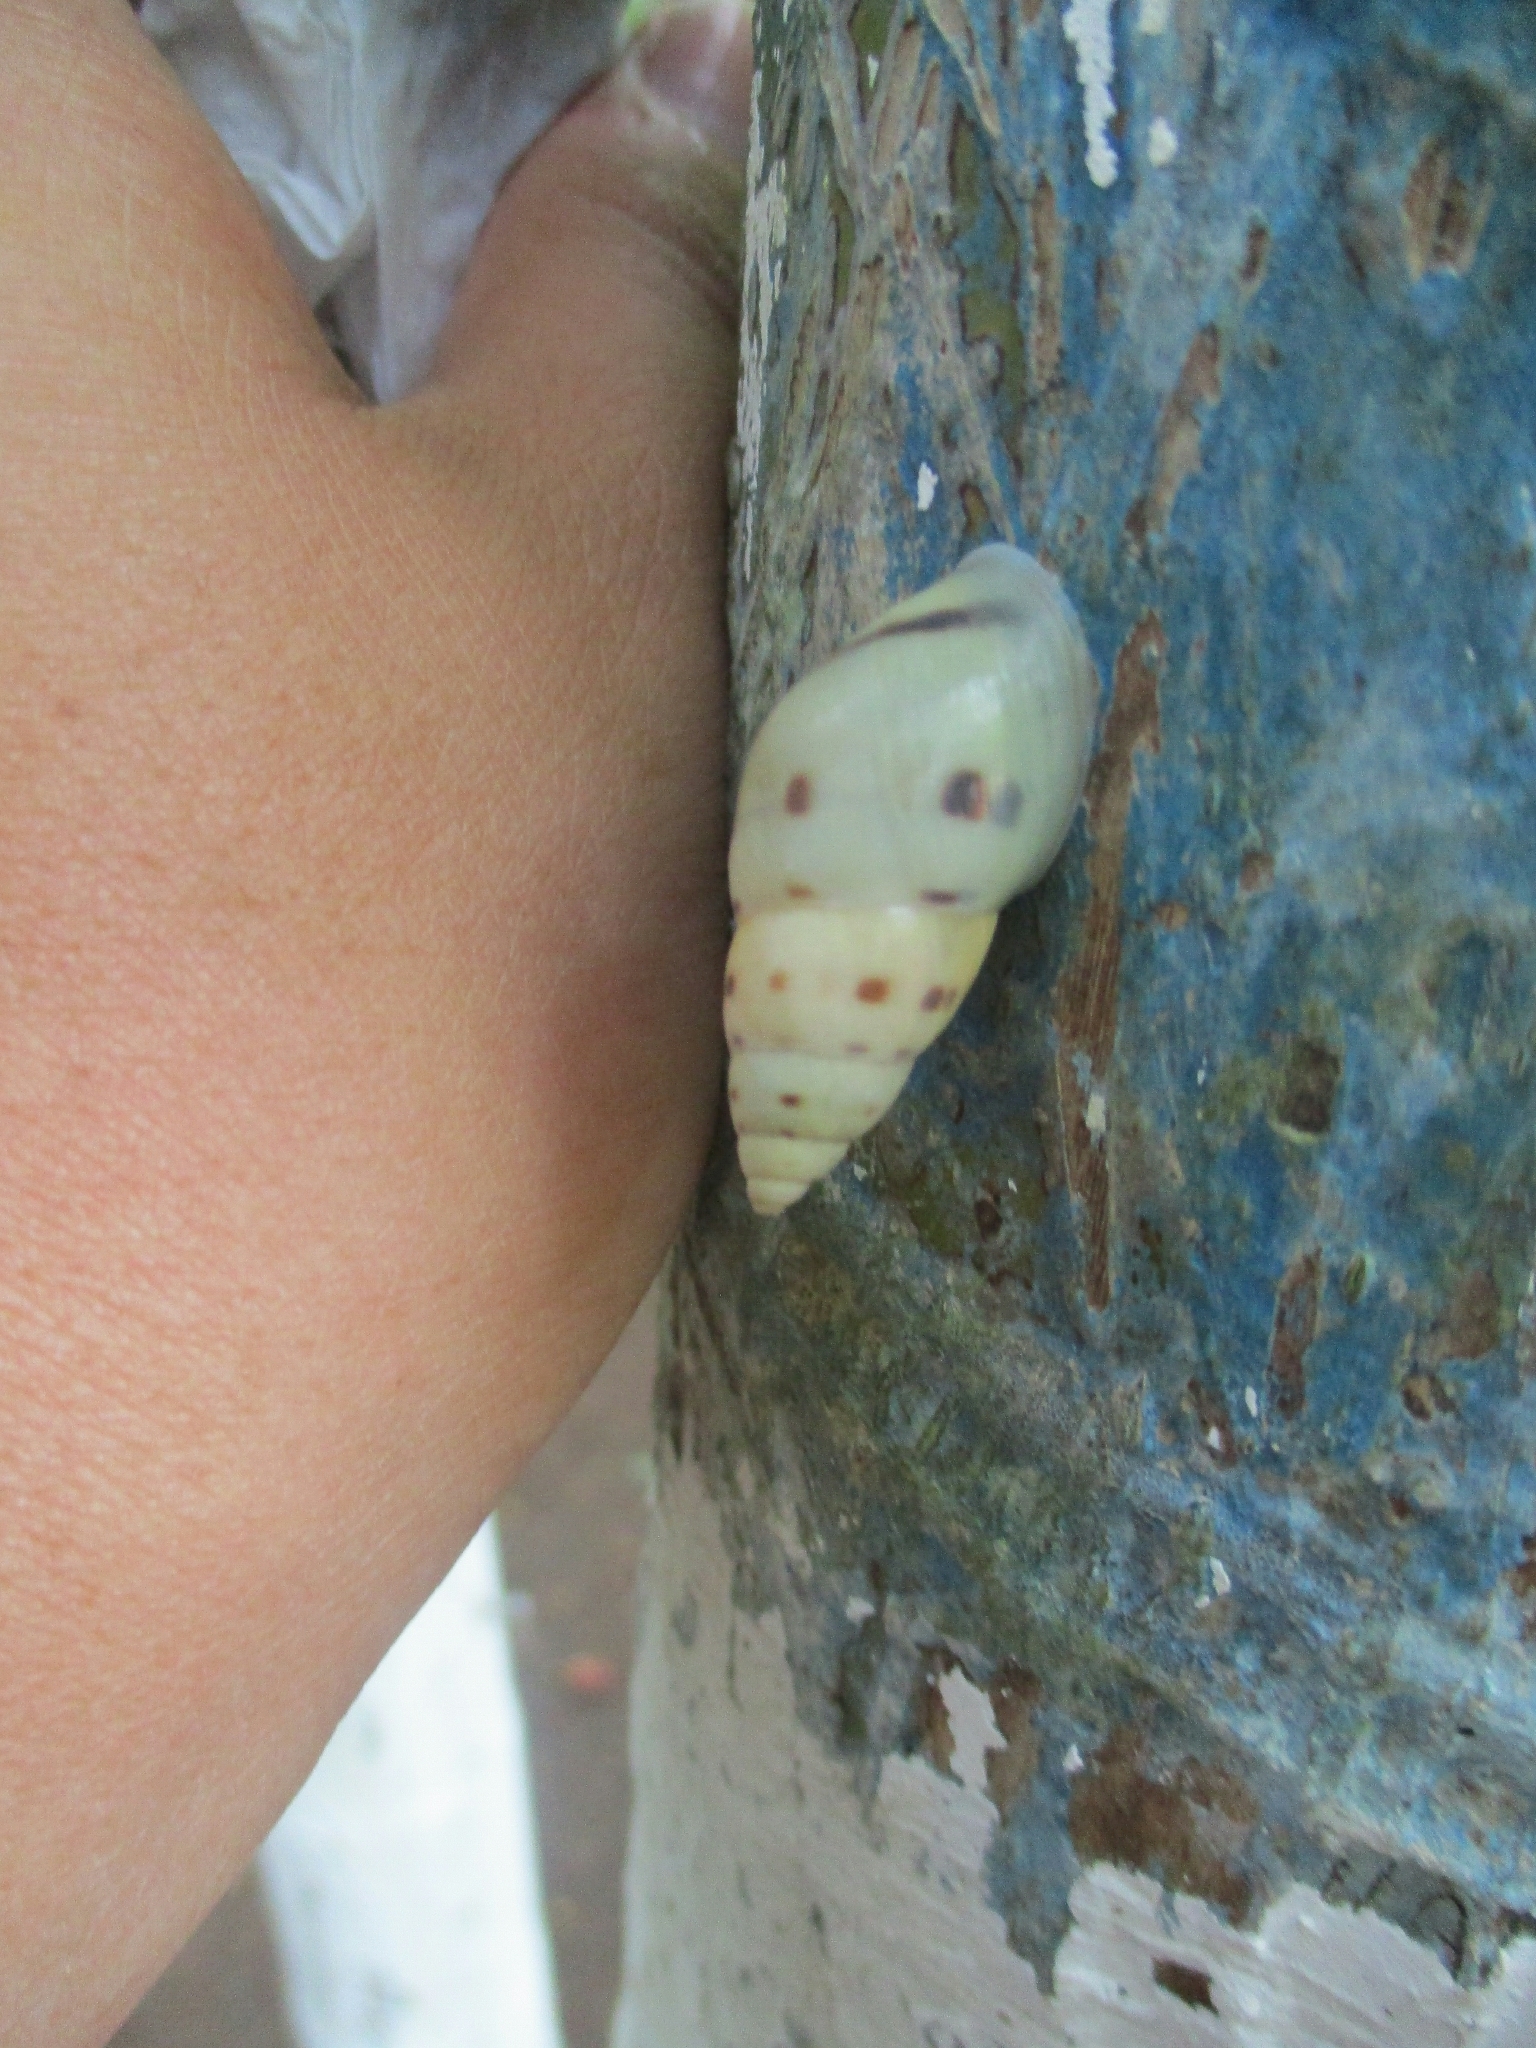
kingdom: Animalia
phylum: Mollusca
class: Gastropoda
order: Stylommatophora
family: Bulimulidae
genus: Drymaeus
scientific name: Drymaeus
